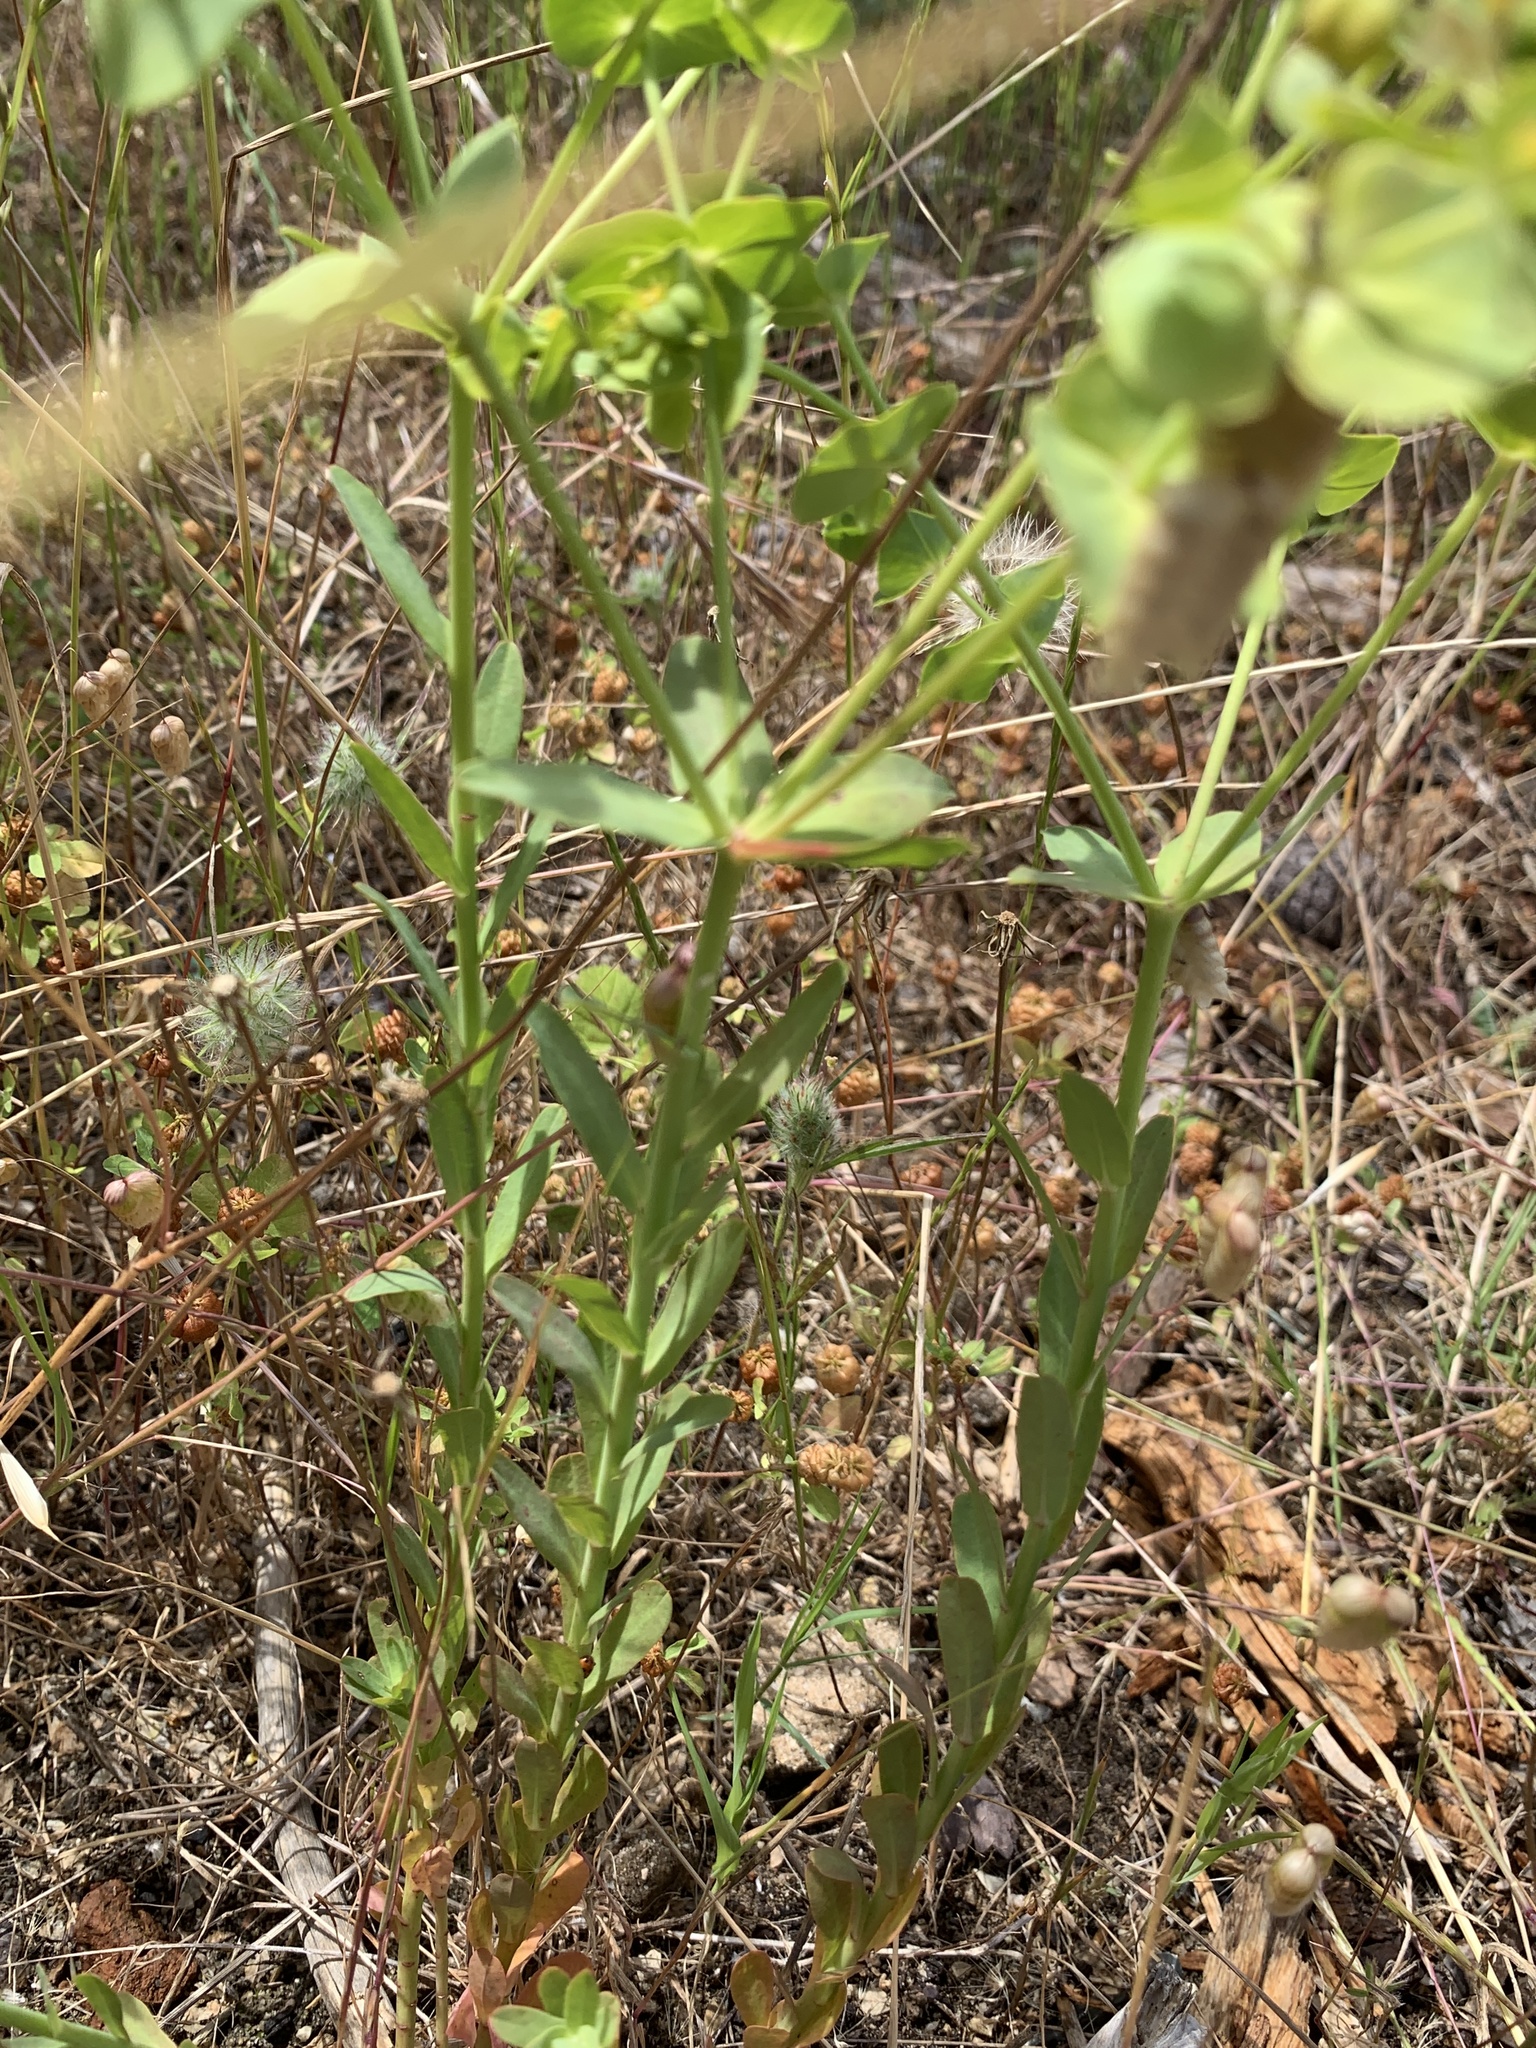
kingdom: Plantae
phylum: Tracheophyta
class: Magnoliopsida
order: Malpighiales
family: Euphorbiaceae
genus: Euphorbia
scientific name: Euphorbia terracina
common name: Geraldton carnation weed
